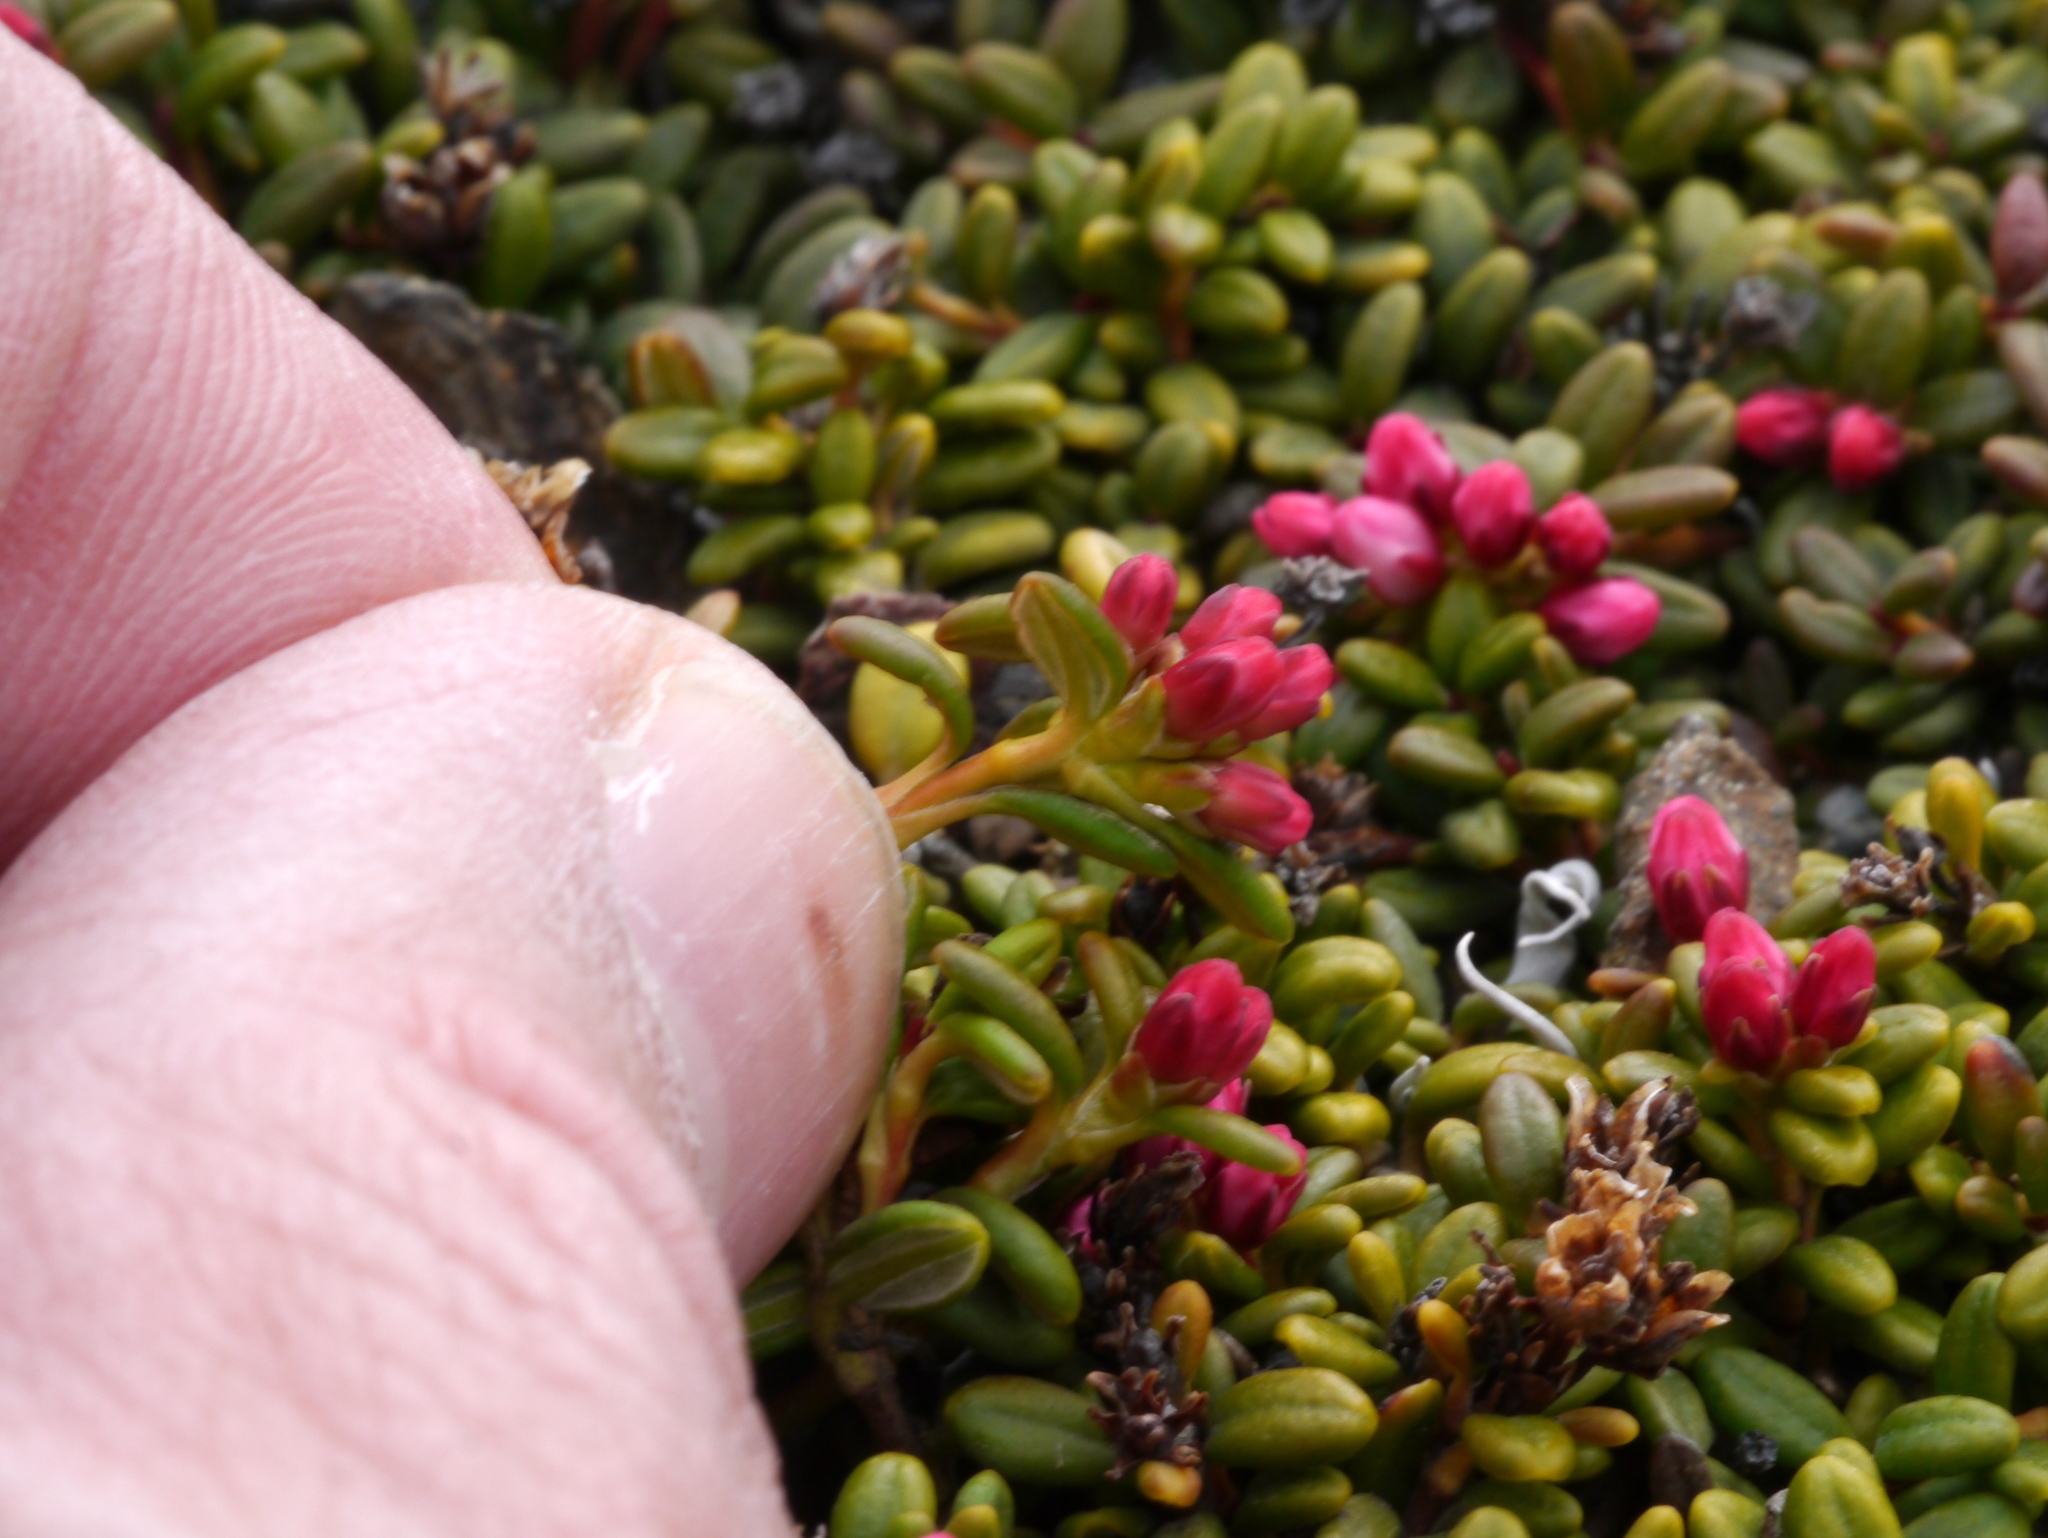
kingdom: Plantae
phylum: Tracheophyta
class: Magnoliopsida
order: Ericales
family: Ericaceae
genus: Kalmia
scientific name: Kalmia procumbens
